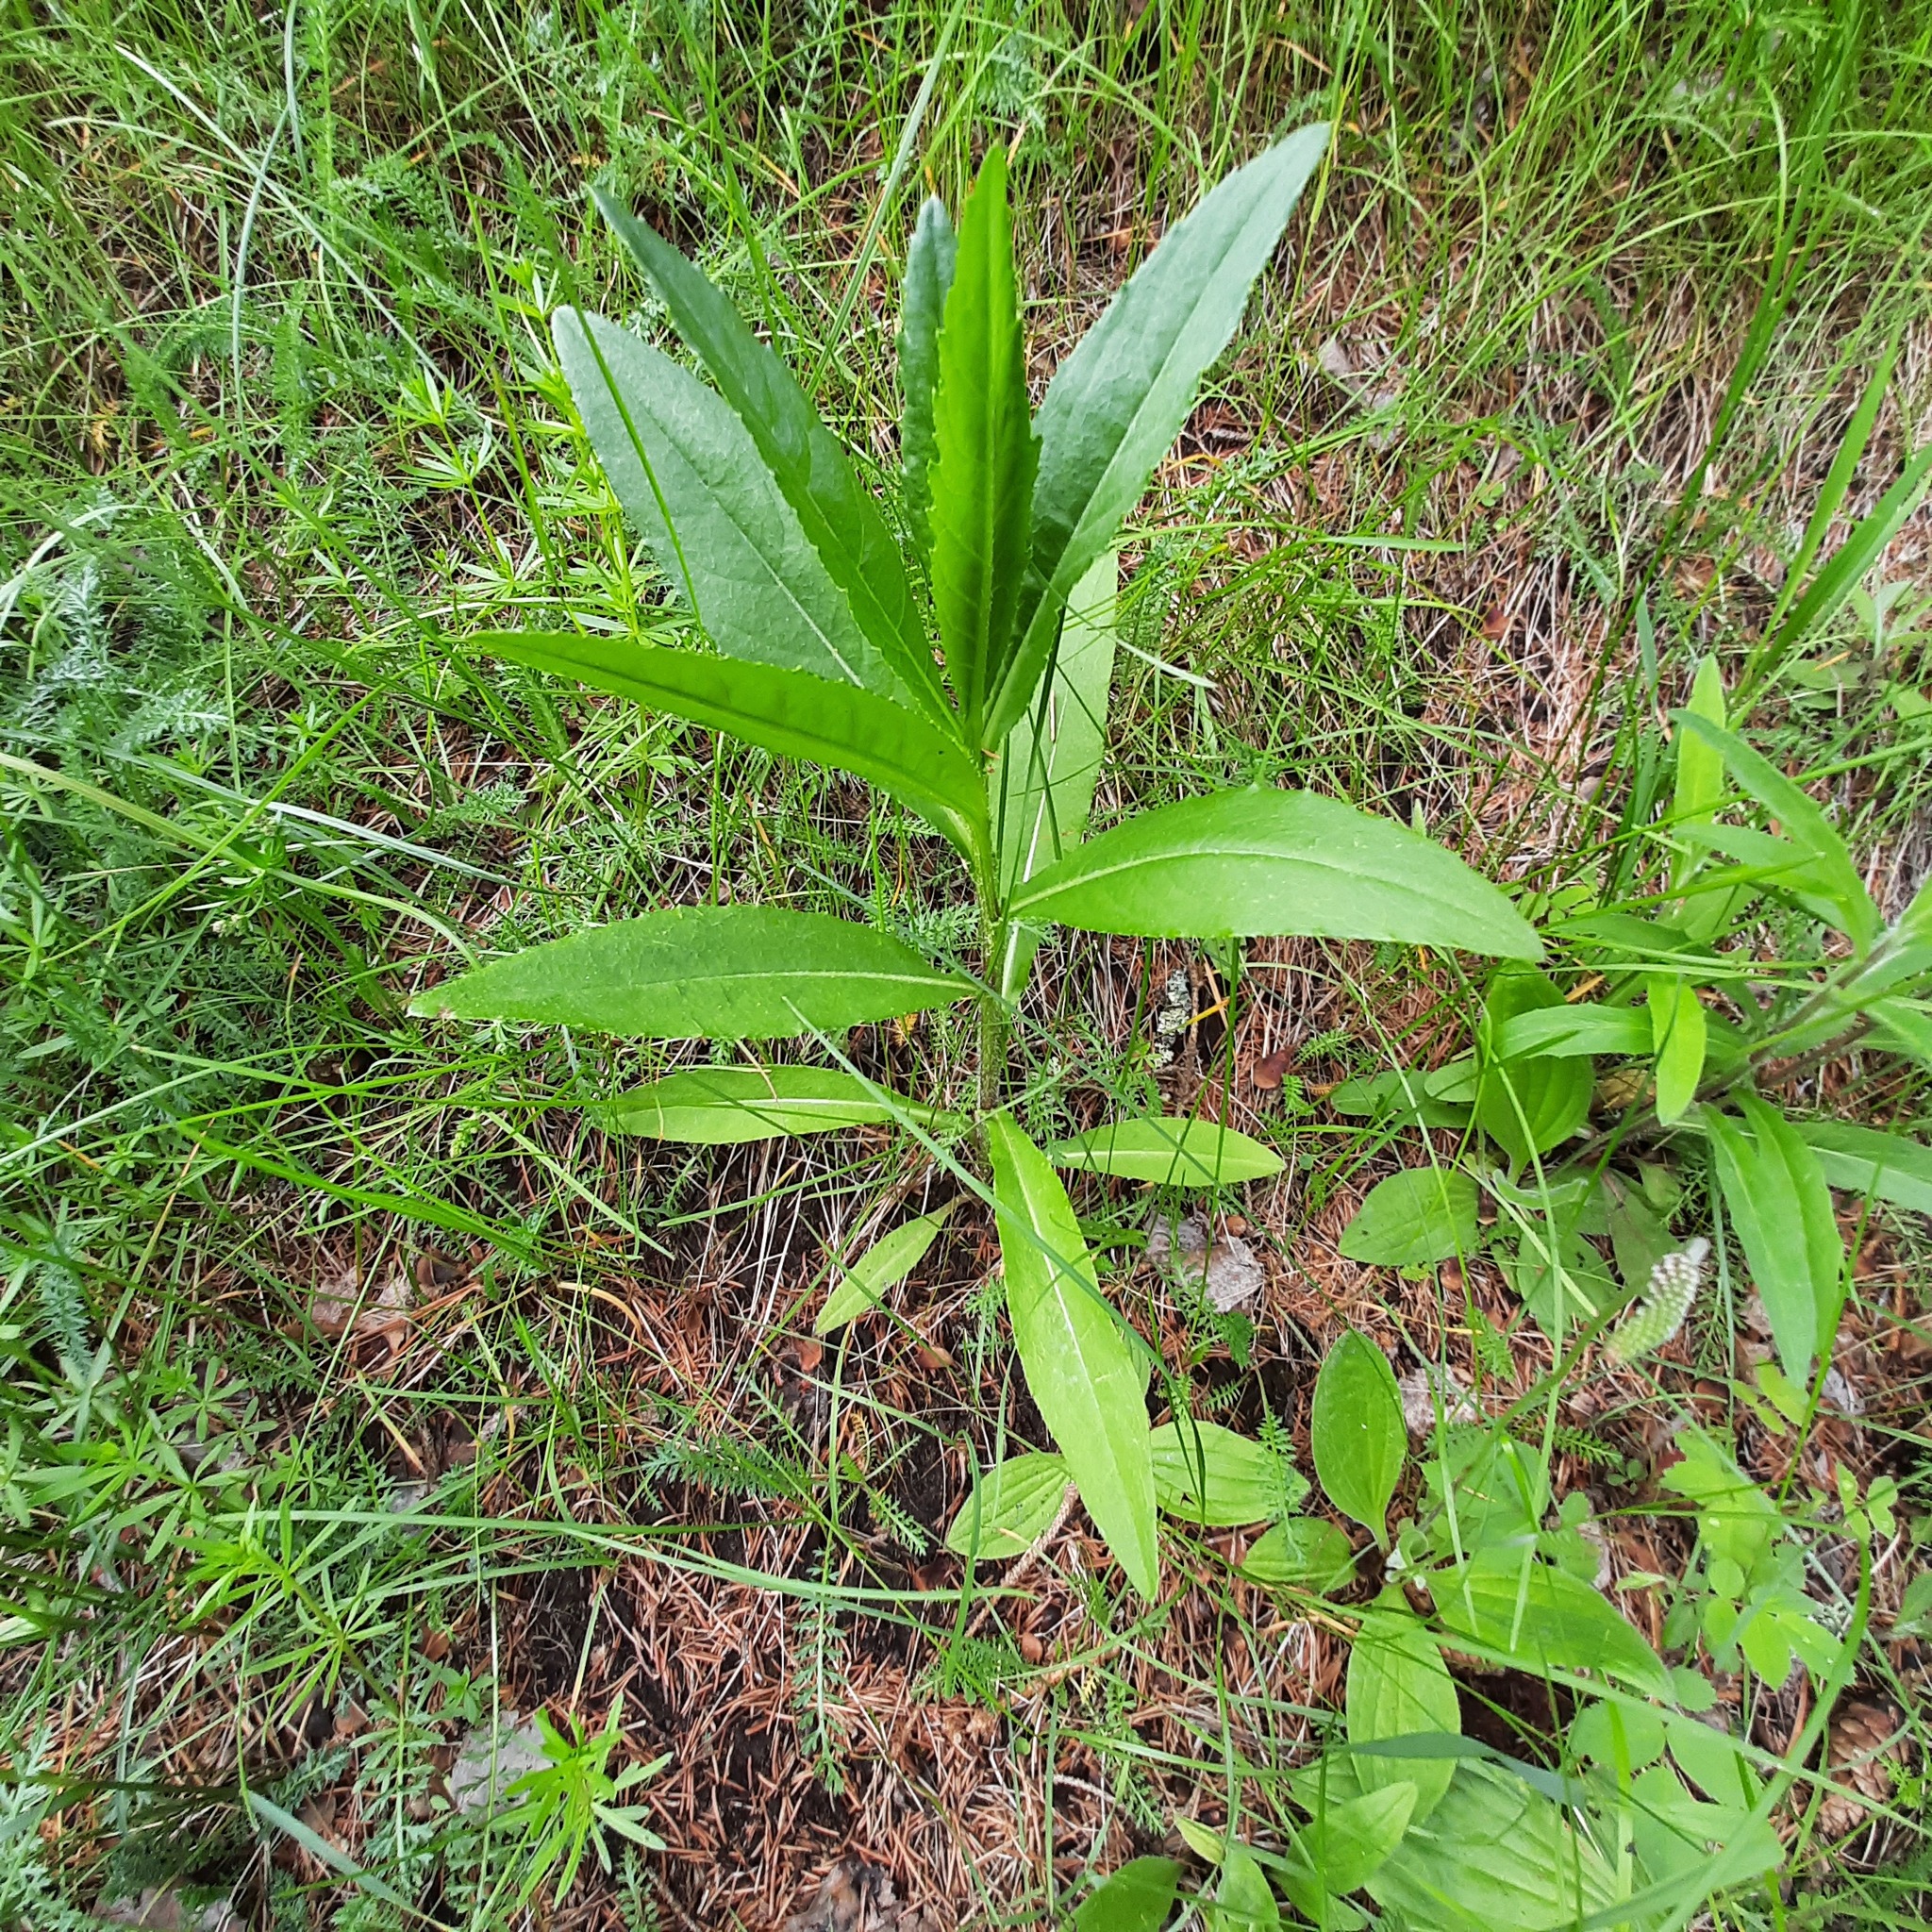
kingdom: Plantae
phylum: Tracheophyta
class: Magnoliopsida
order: Asterales
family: Asteraceae
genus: Cirsium
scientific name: Cirsium arvense
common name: Creeping thistle
